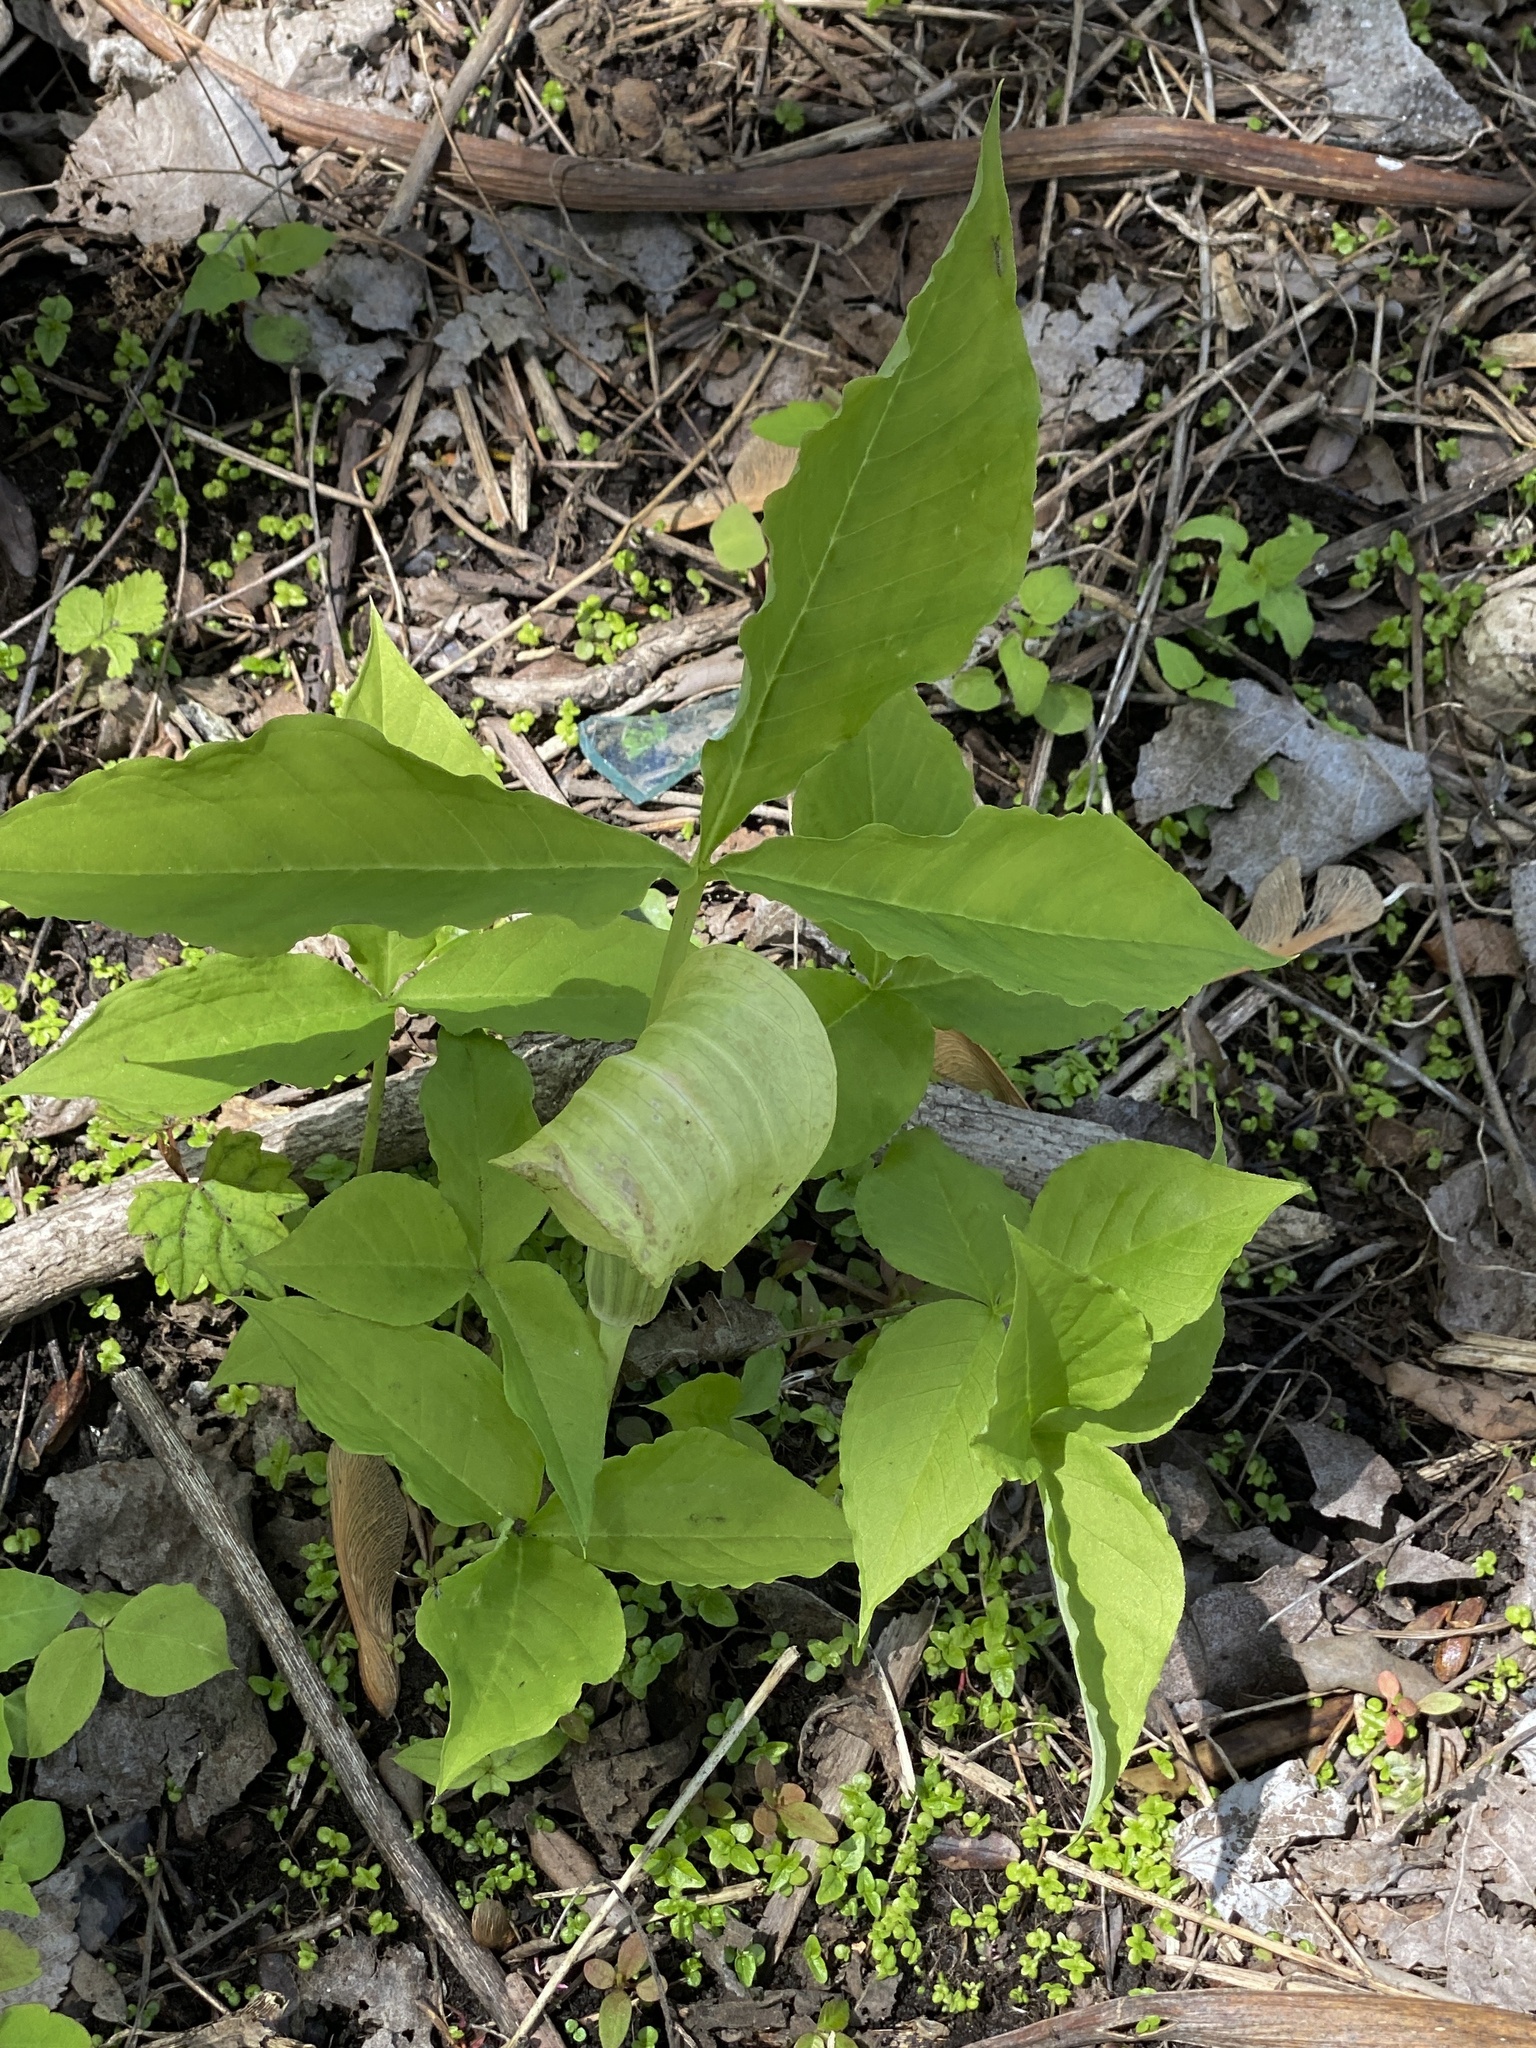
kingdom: Plantae
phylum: Tracheophyta
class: Liliopsida
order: Alismatales
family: Araceae
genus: Arisaema
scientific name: Arisaema triphyllum
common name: Jack-in-the-pulpit
